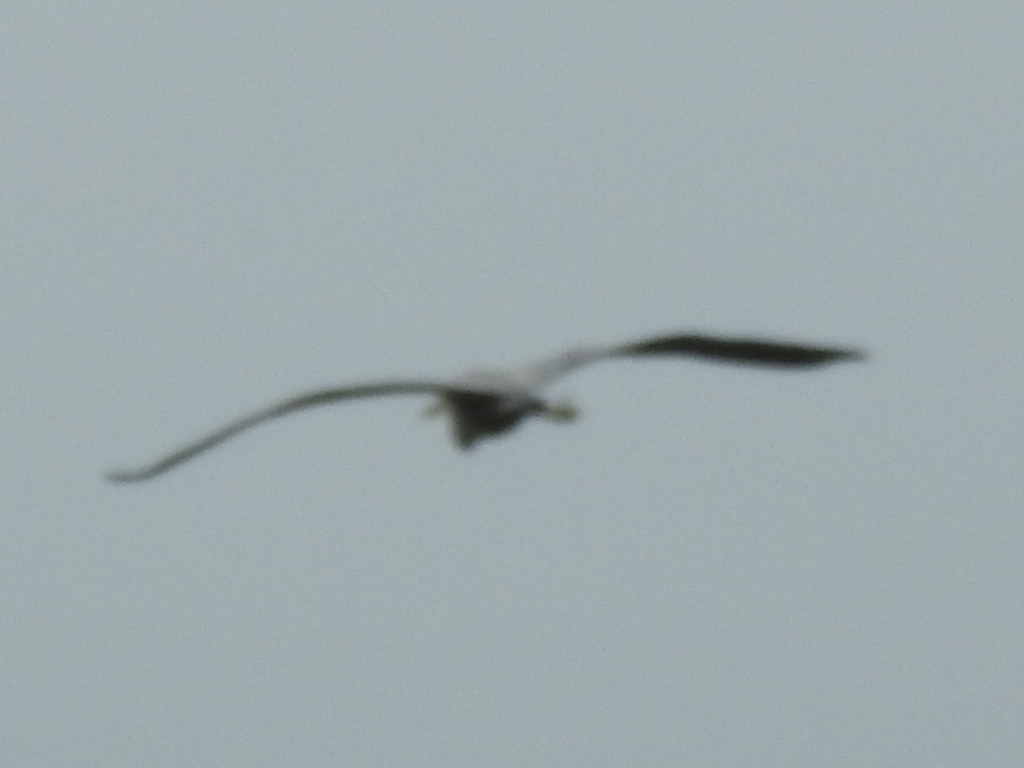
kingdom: Animalia
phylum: Chordata
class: Aves
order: Pelecaniformes
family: Ardeidae
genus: Ardea
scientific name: Ardea herodias
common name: Great blue heron
